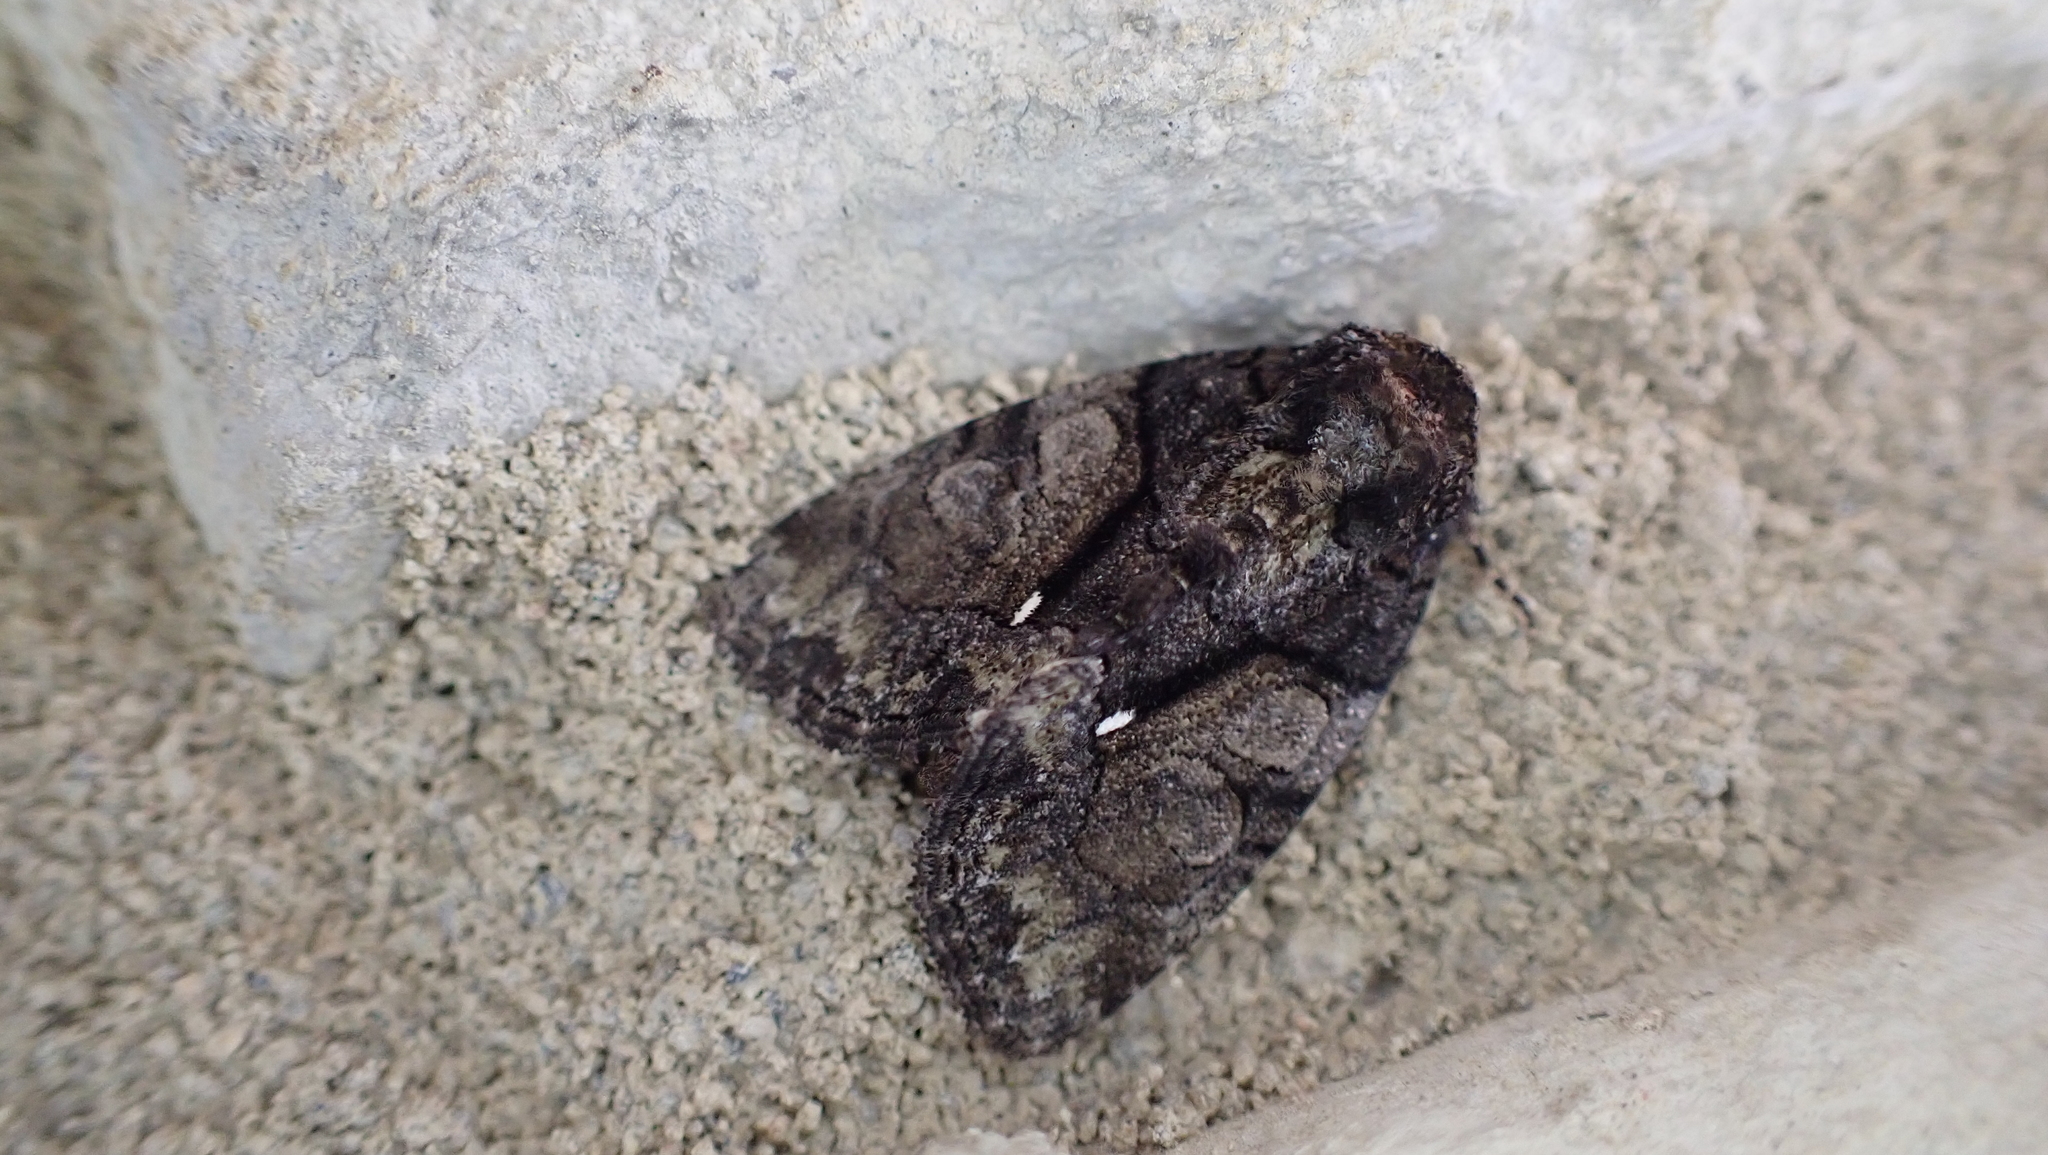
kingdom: Animalia
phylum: Arthropoda
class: Insecta
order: Lepidoptera
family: Noctuidae
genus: Chytonix
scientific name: Chytonix palliatricula
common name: Cloaked marvel
